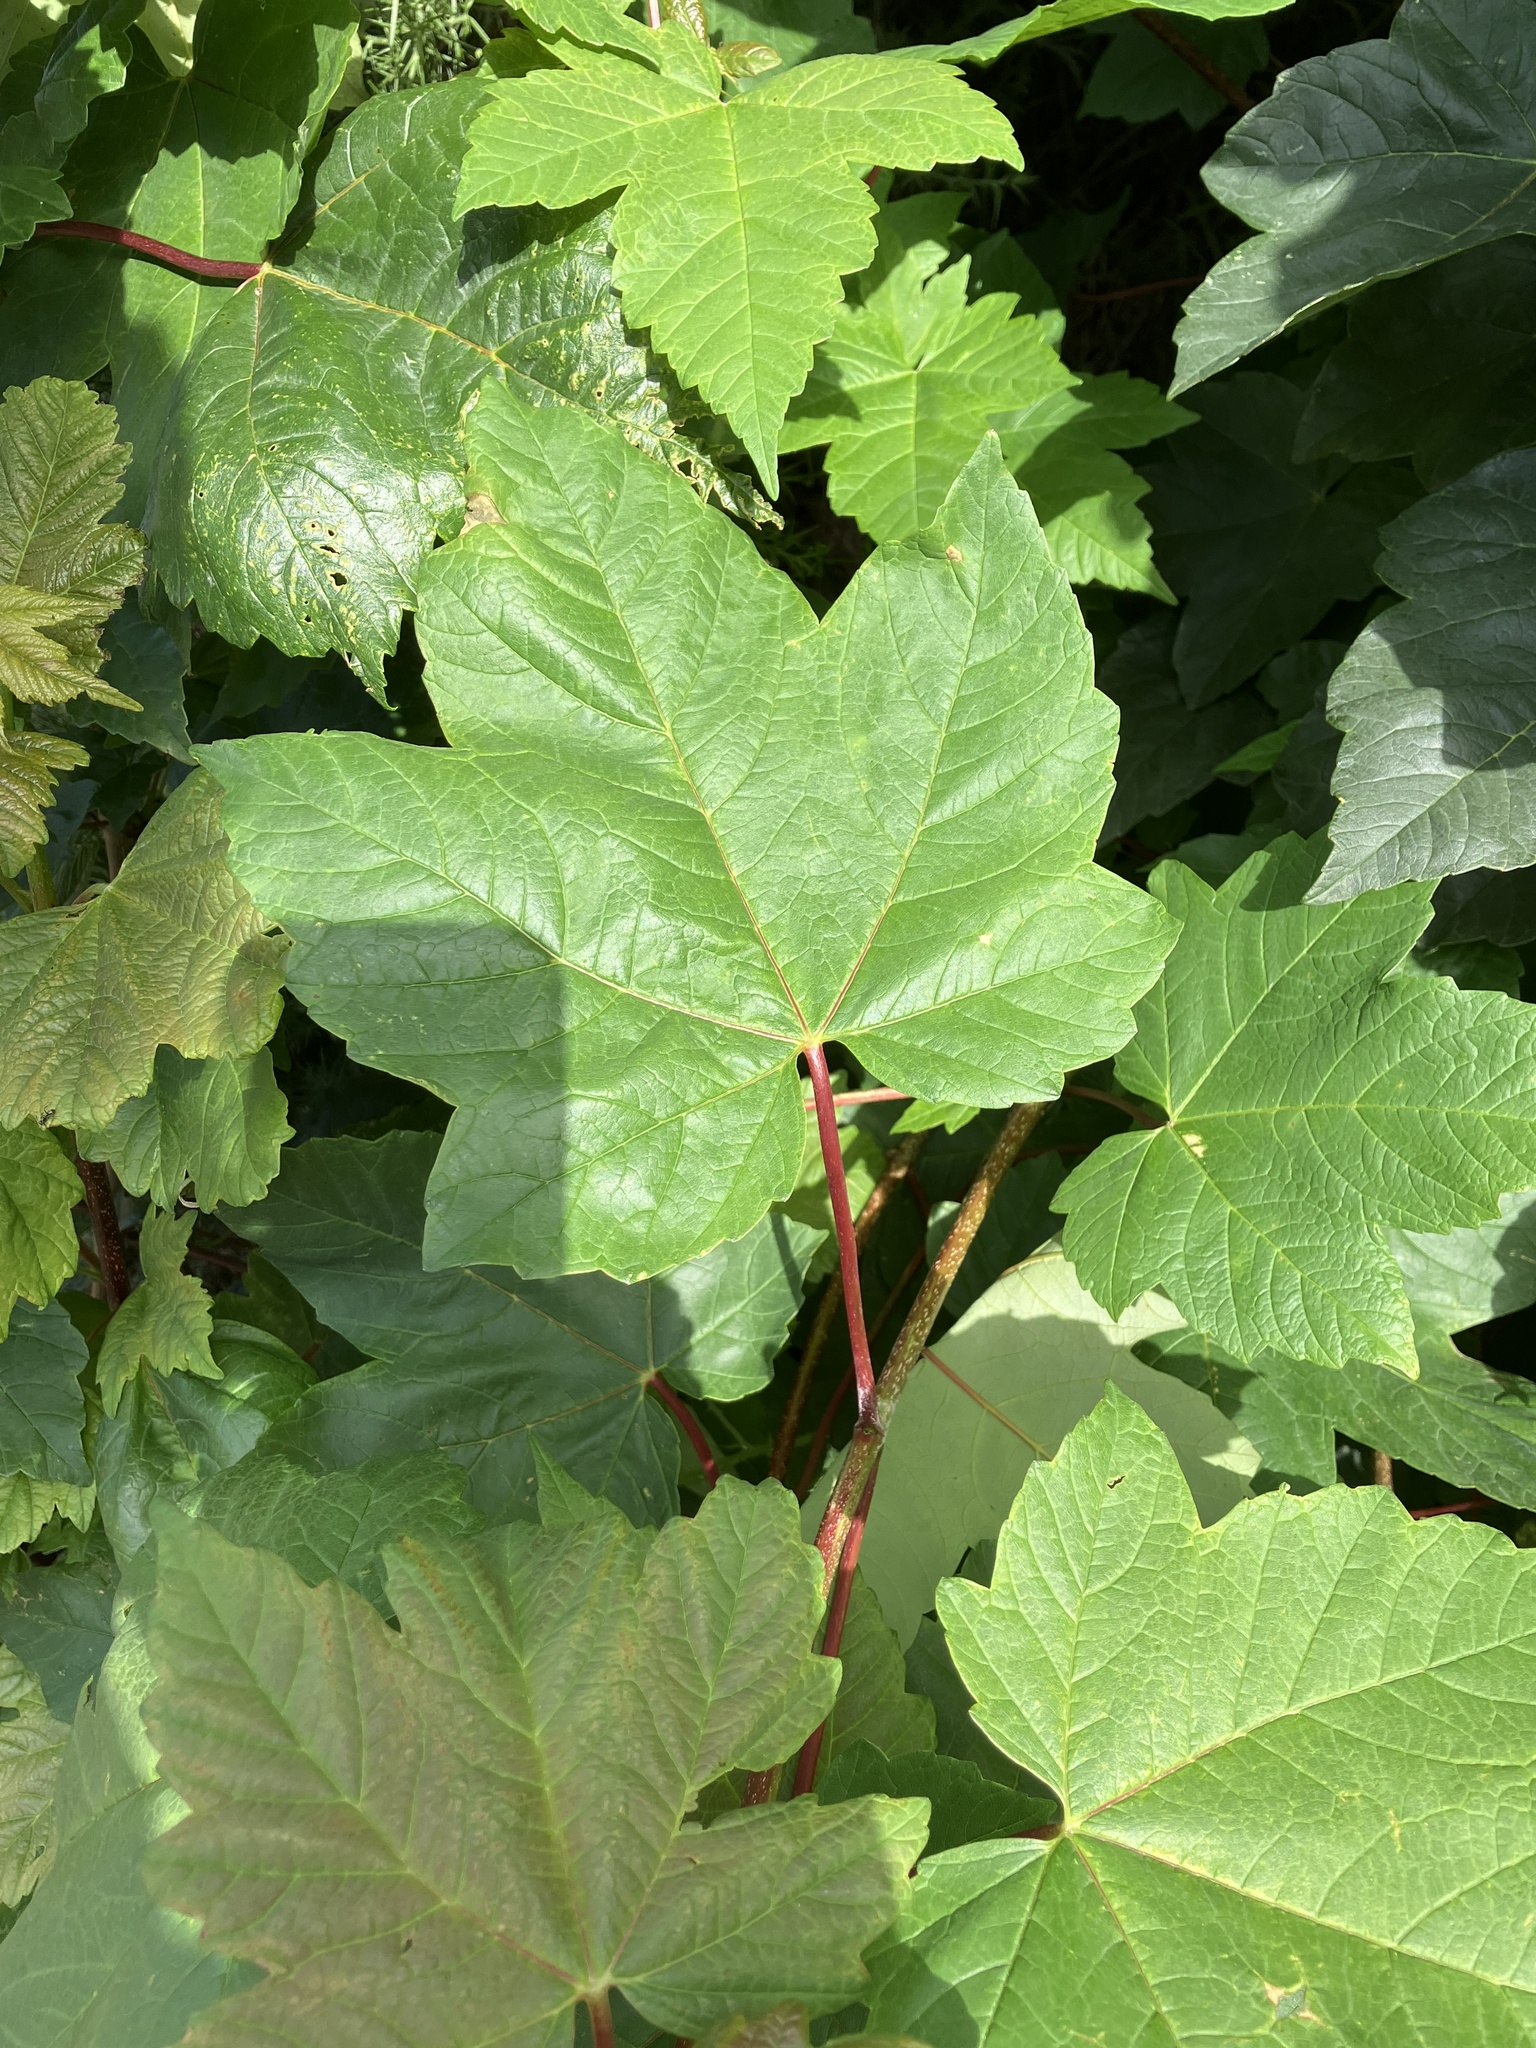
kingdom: Plantae
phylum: Tracheophyta
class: Magnoliopsida
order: Sapindales
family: Sapindaceae
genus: Acer
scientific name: Acer pseudoplatanus
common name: Sycamore
